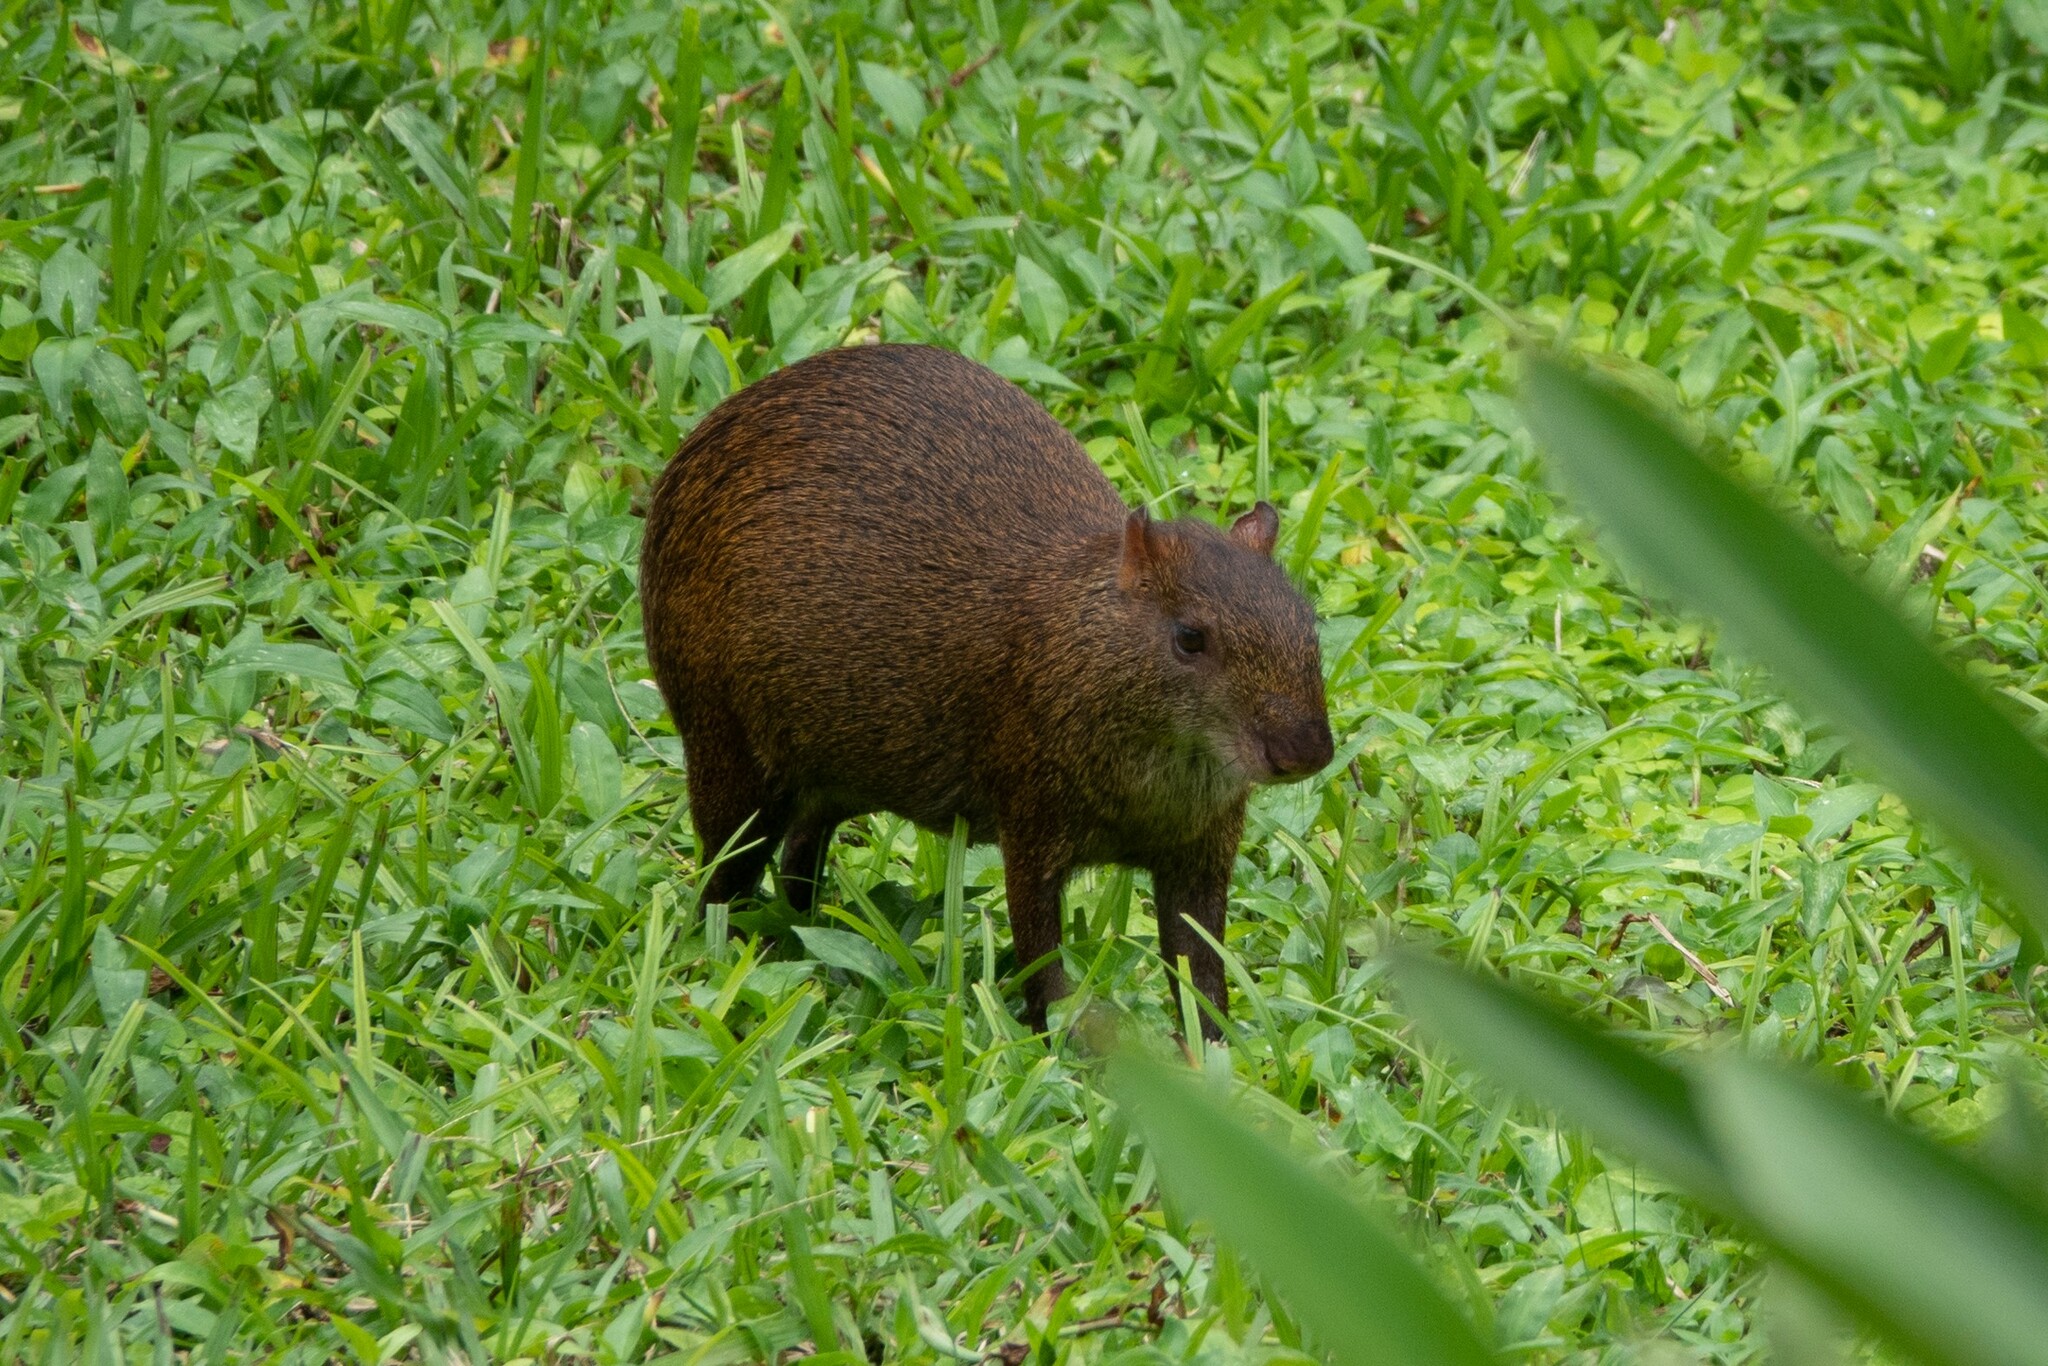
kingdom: Animalia
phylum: Chordata
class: Mammalia
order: Rodentia
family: Dasyproctidae
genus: Dasyprocta
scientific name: Dasyprocta punctata
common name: Central american agouti
